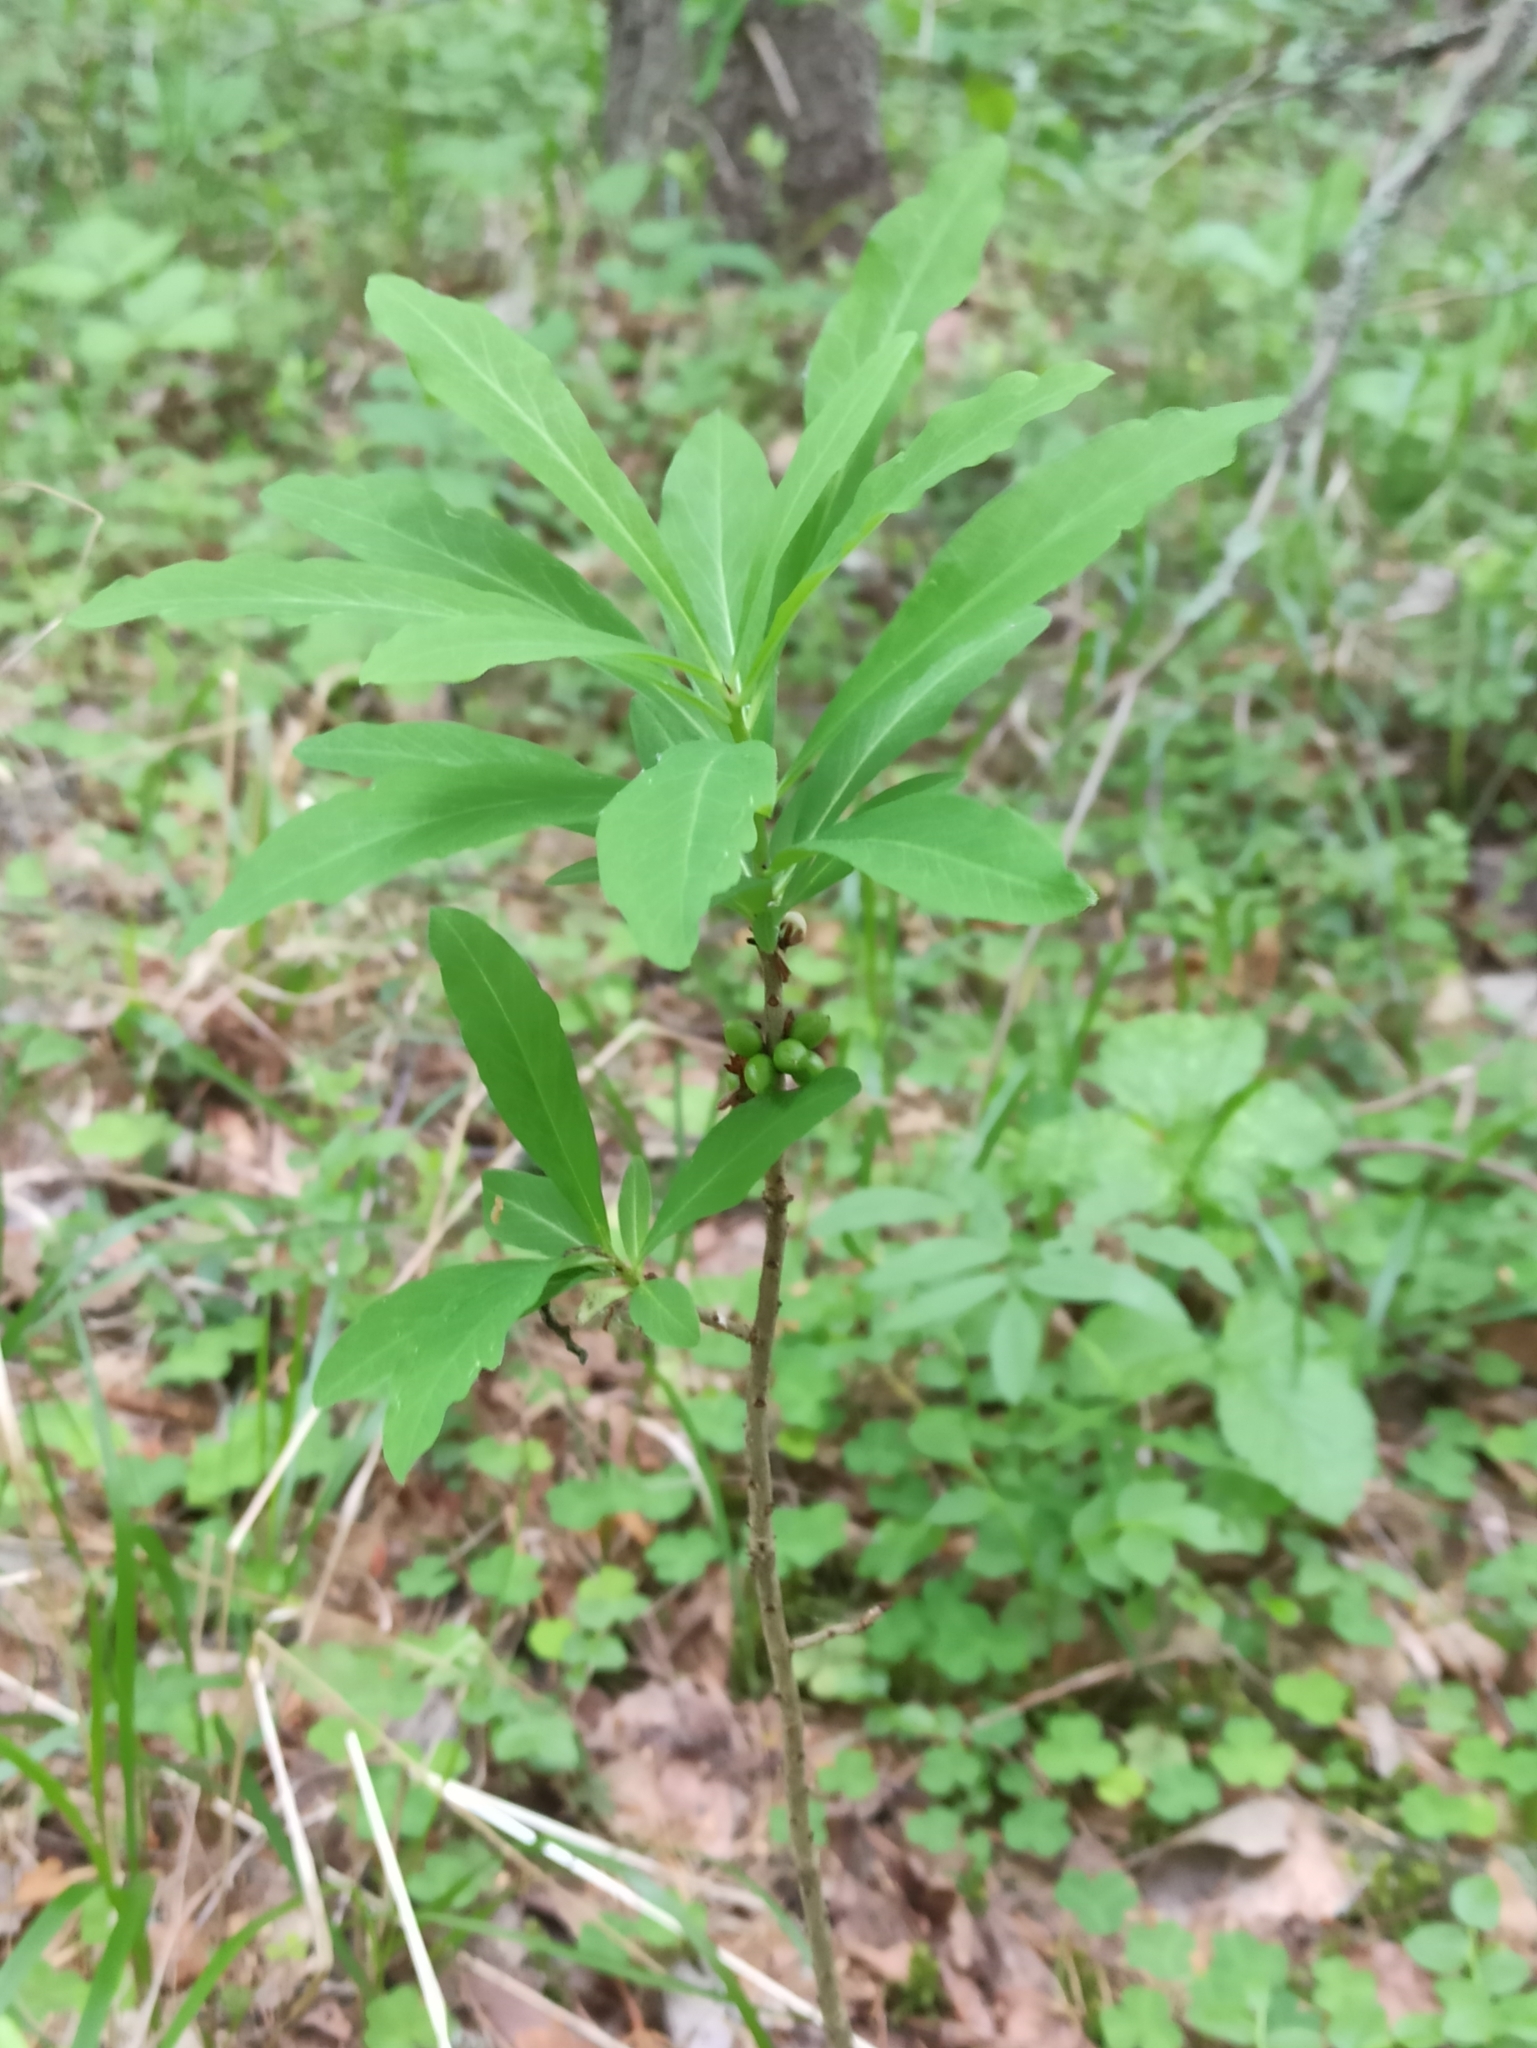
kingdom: Plantae
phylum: Tracheophyta
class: Magnoliopsida
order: Malvales
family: Thymelaeaceae
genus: Daphne
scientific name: Daphne mezereum
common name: Mezereon
